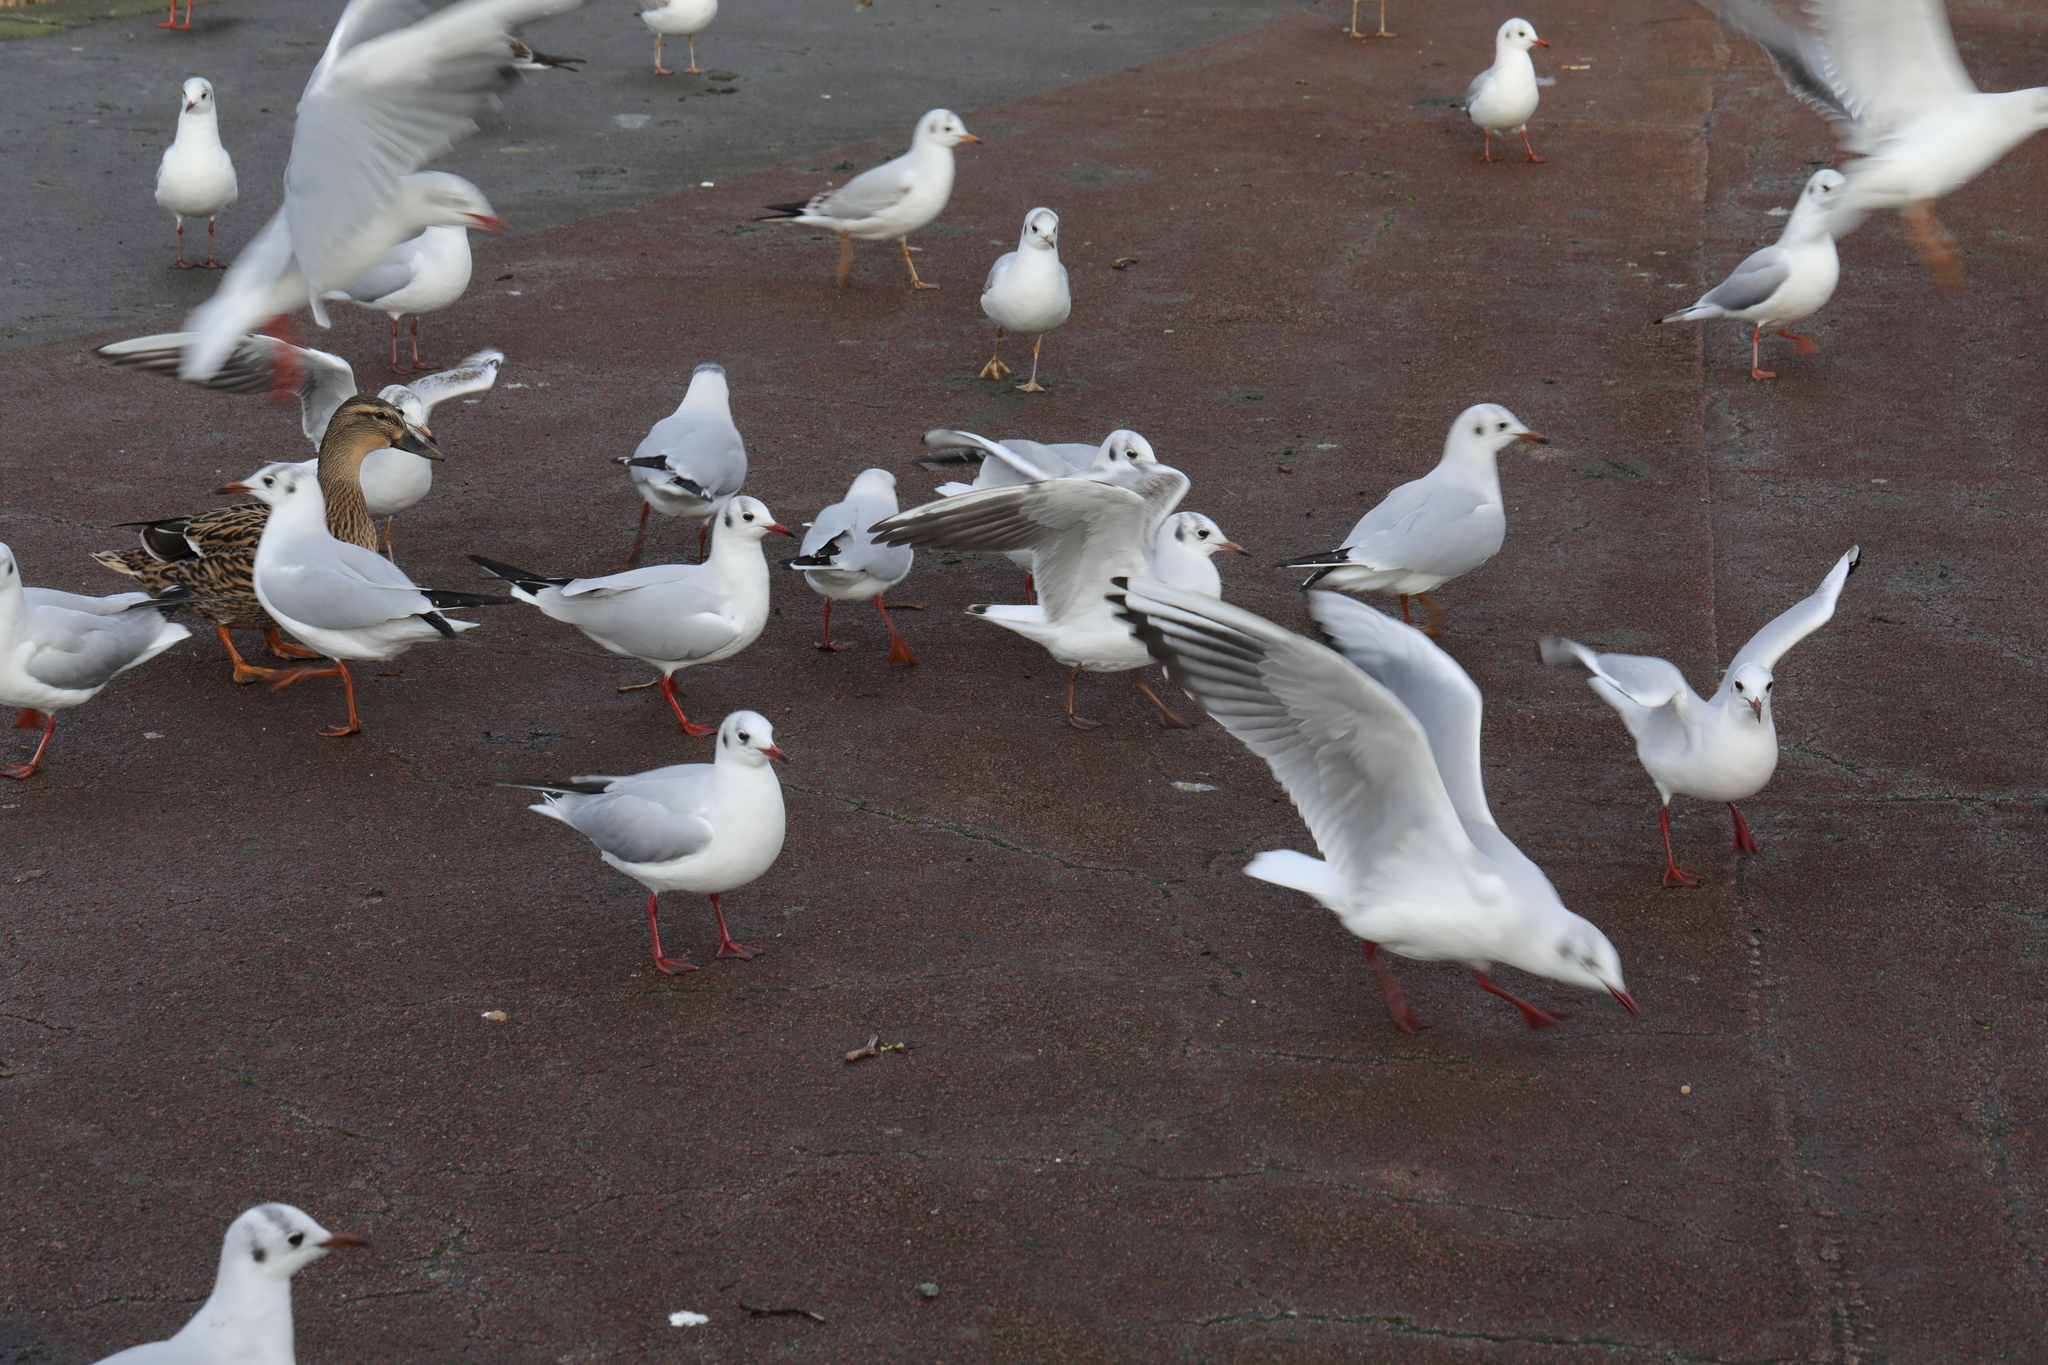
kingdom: Animalia
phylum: Chordata
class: Aves
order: Charadriiformes
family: Laridae
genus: Chroicocephalus
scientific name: Chroicocephalus ridibundus
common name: Black-headed gull
